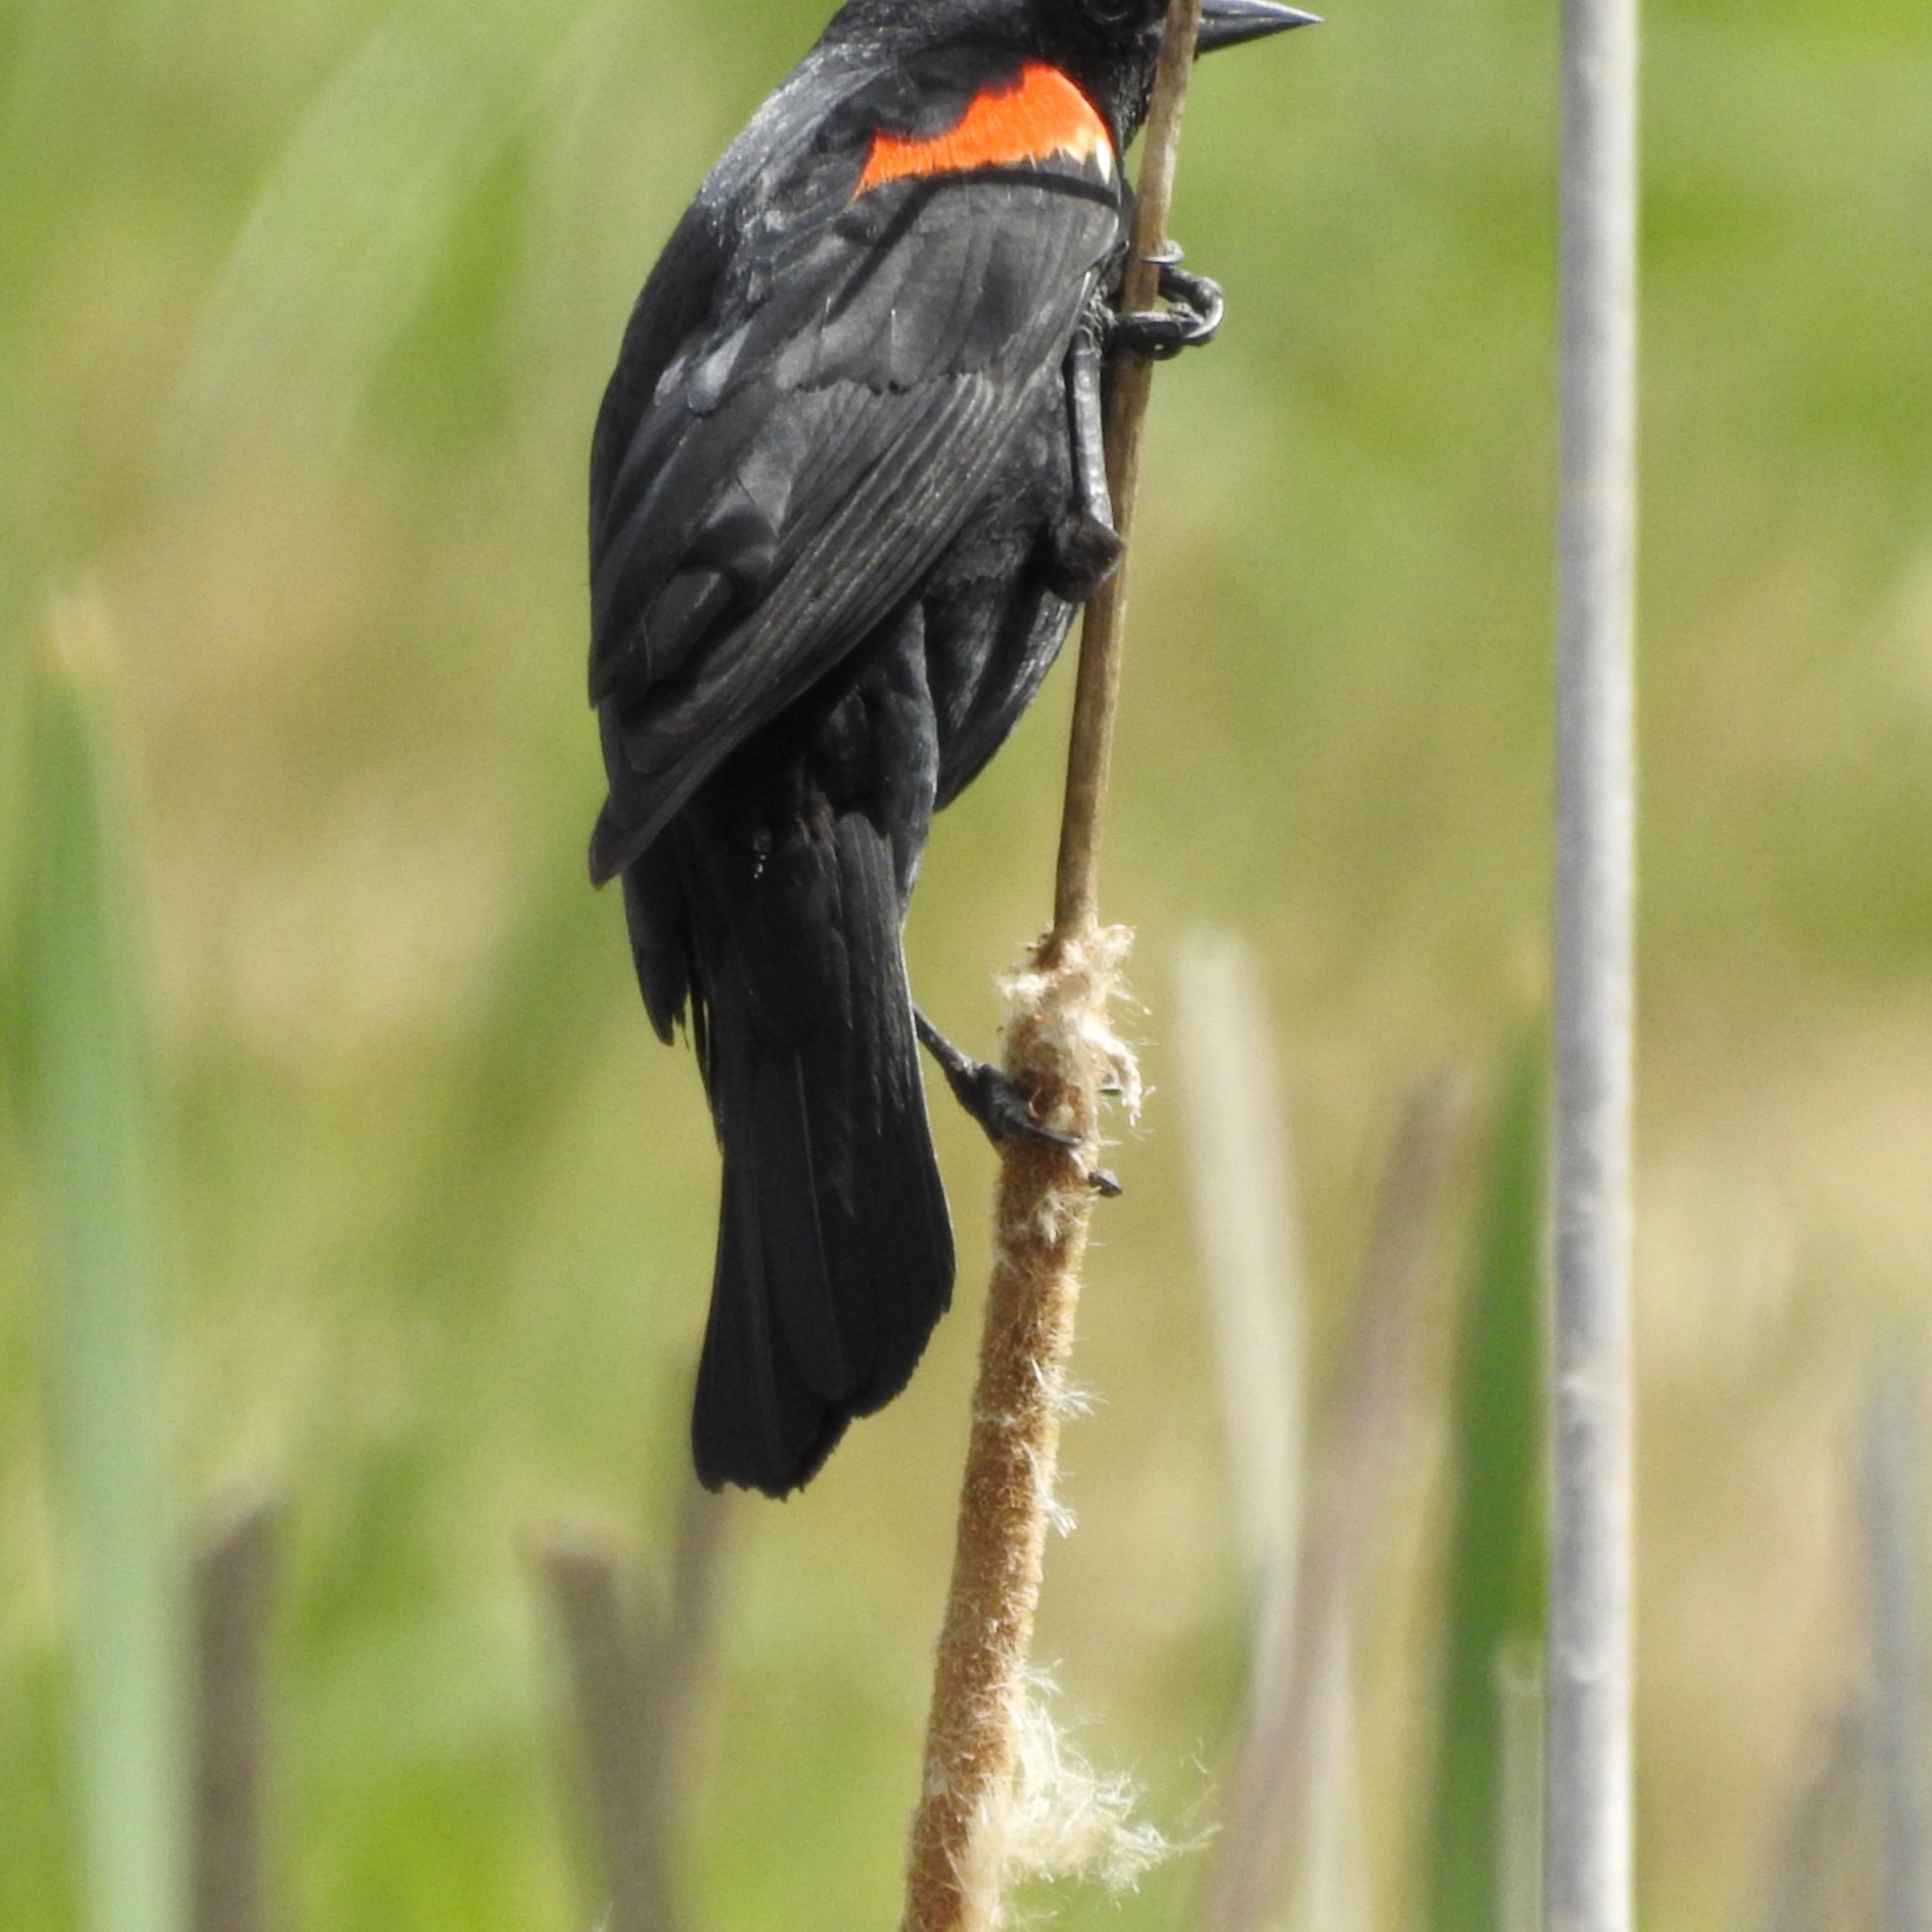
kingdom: Animalia
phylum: Chordata
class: Aves
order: Passeriformes
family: Icteridae
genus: Agelaius
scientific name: Agelaius phoeniceus
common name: Red-winged blackbird
